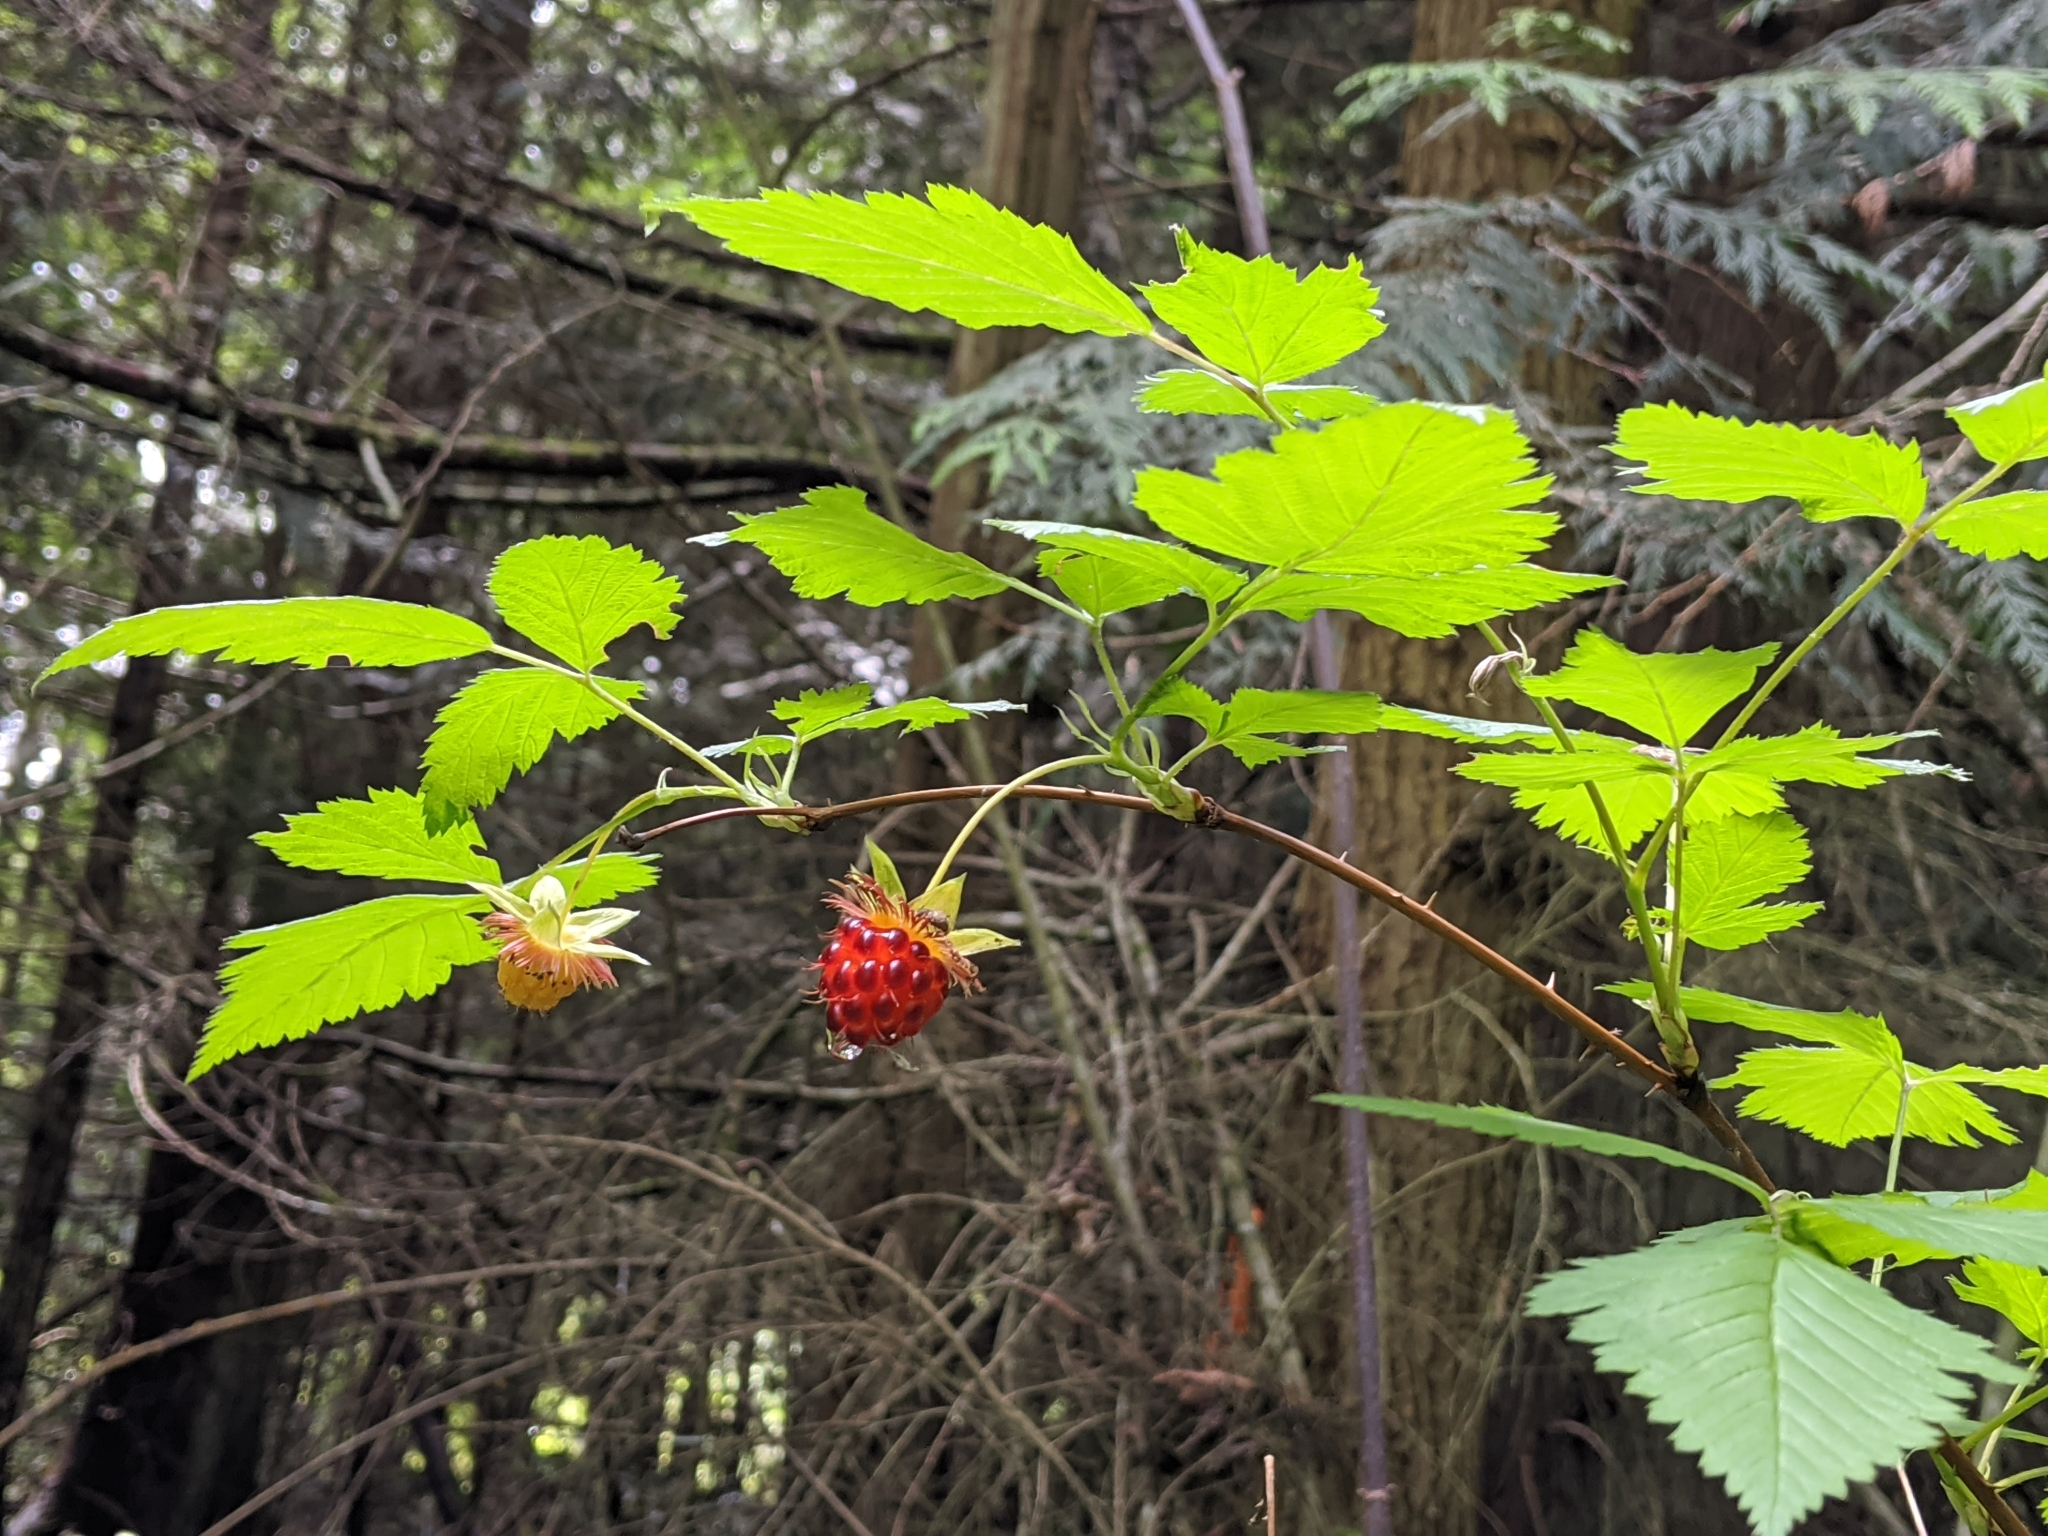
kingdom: Plantae
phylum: Tracheophyta
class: Magnoliopsida
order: Rosales
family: Rosaceae
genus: Rubus
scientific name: Rubus spectabilis
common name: Salmonberry
